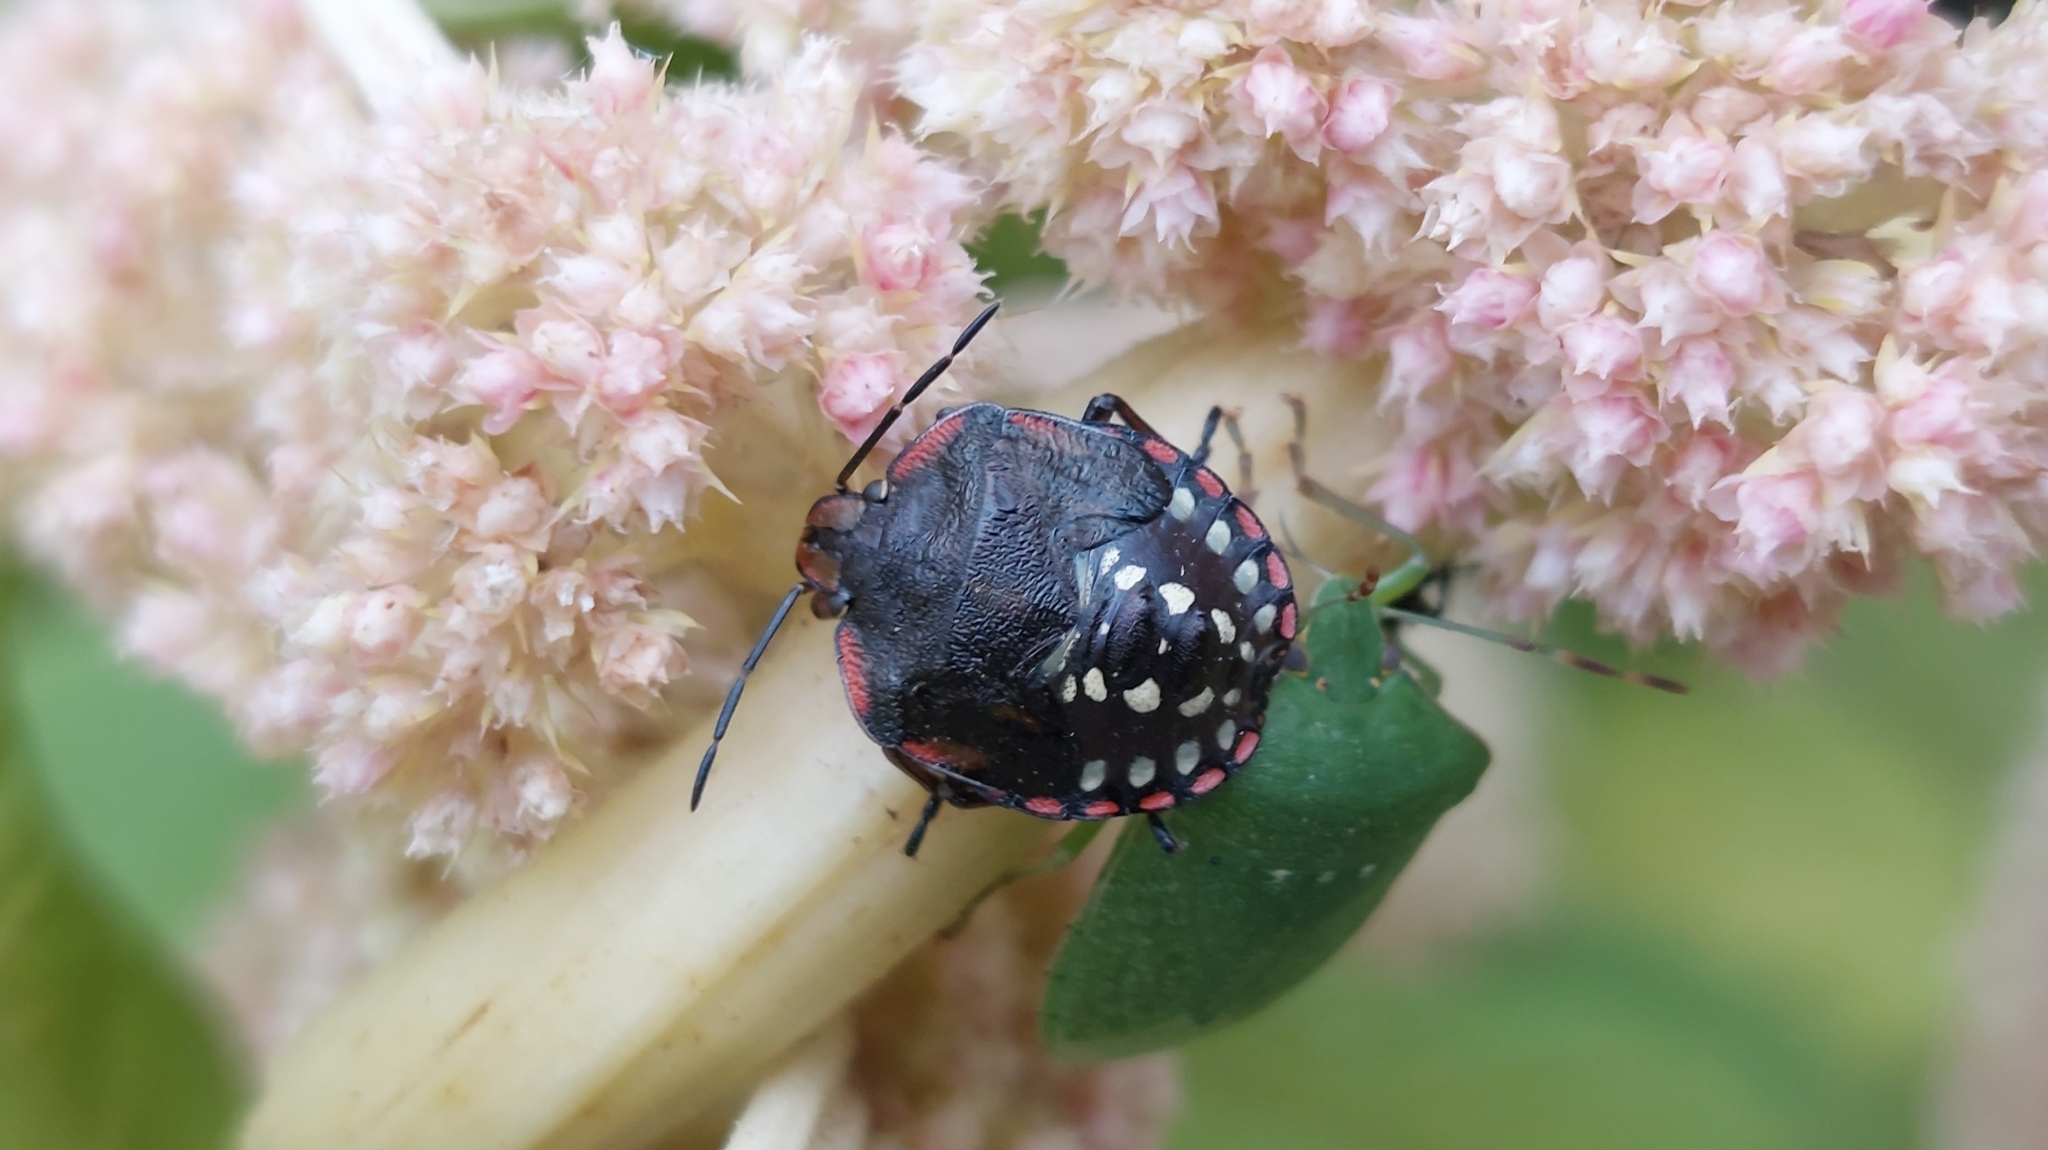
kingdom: Animalia
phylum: Arthropoda
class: Insecta
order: Hemiptera
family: Pentatomidae
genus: Nezara
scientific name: Nezara viridula
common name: Southern green stink bug
